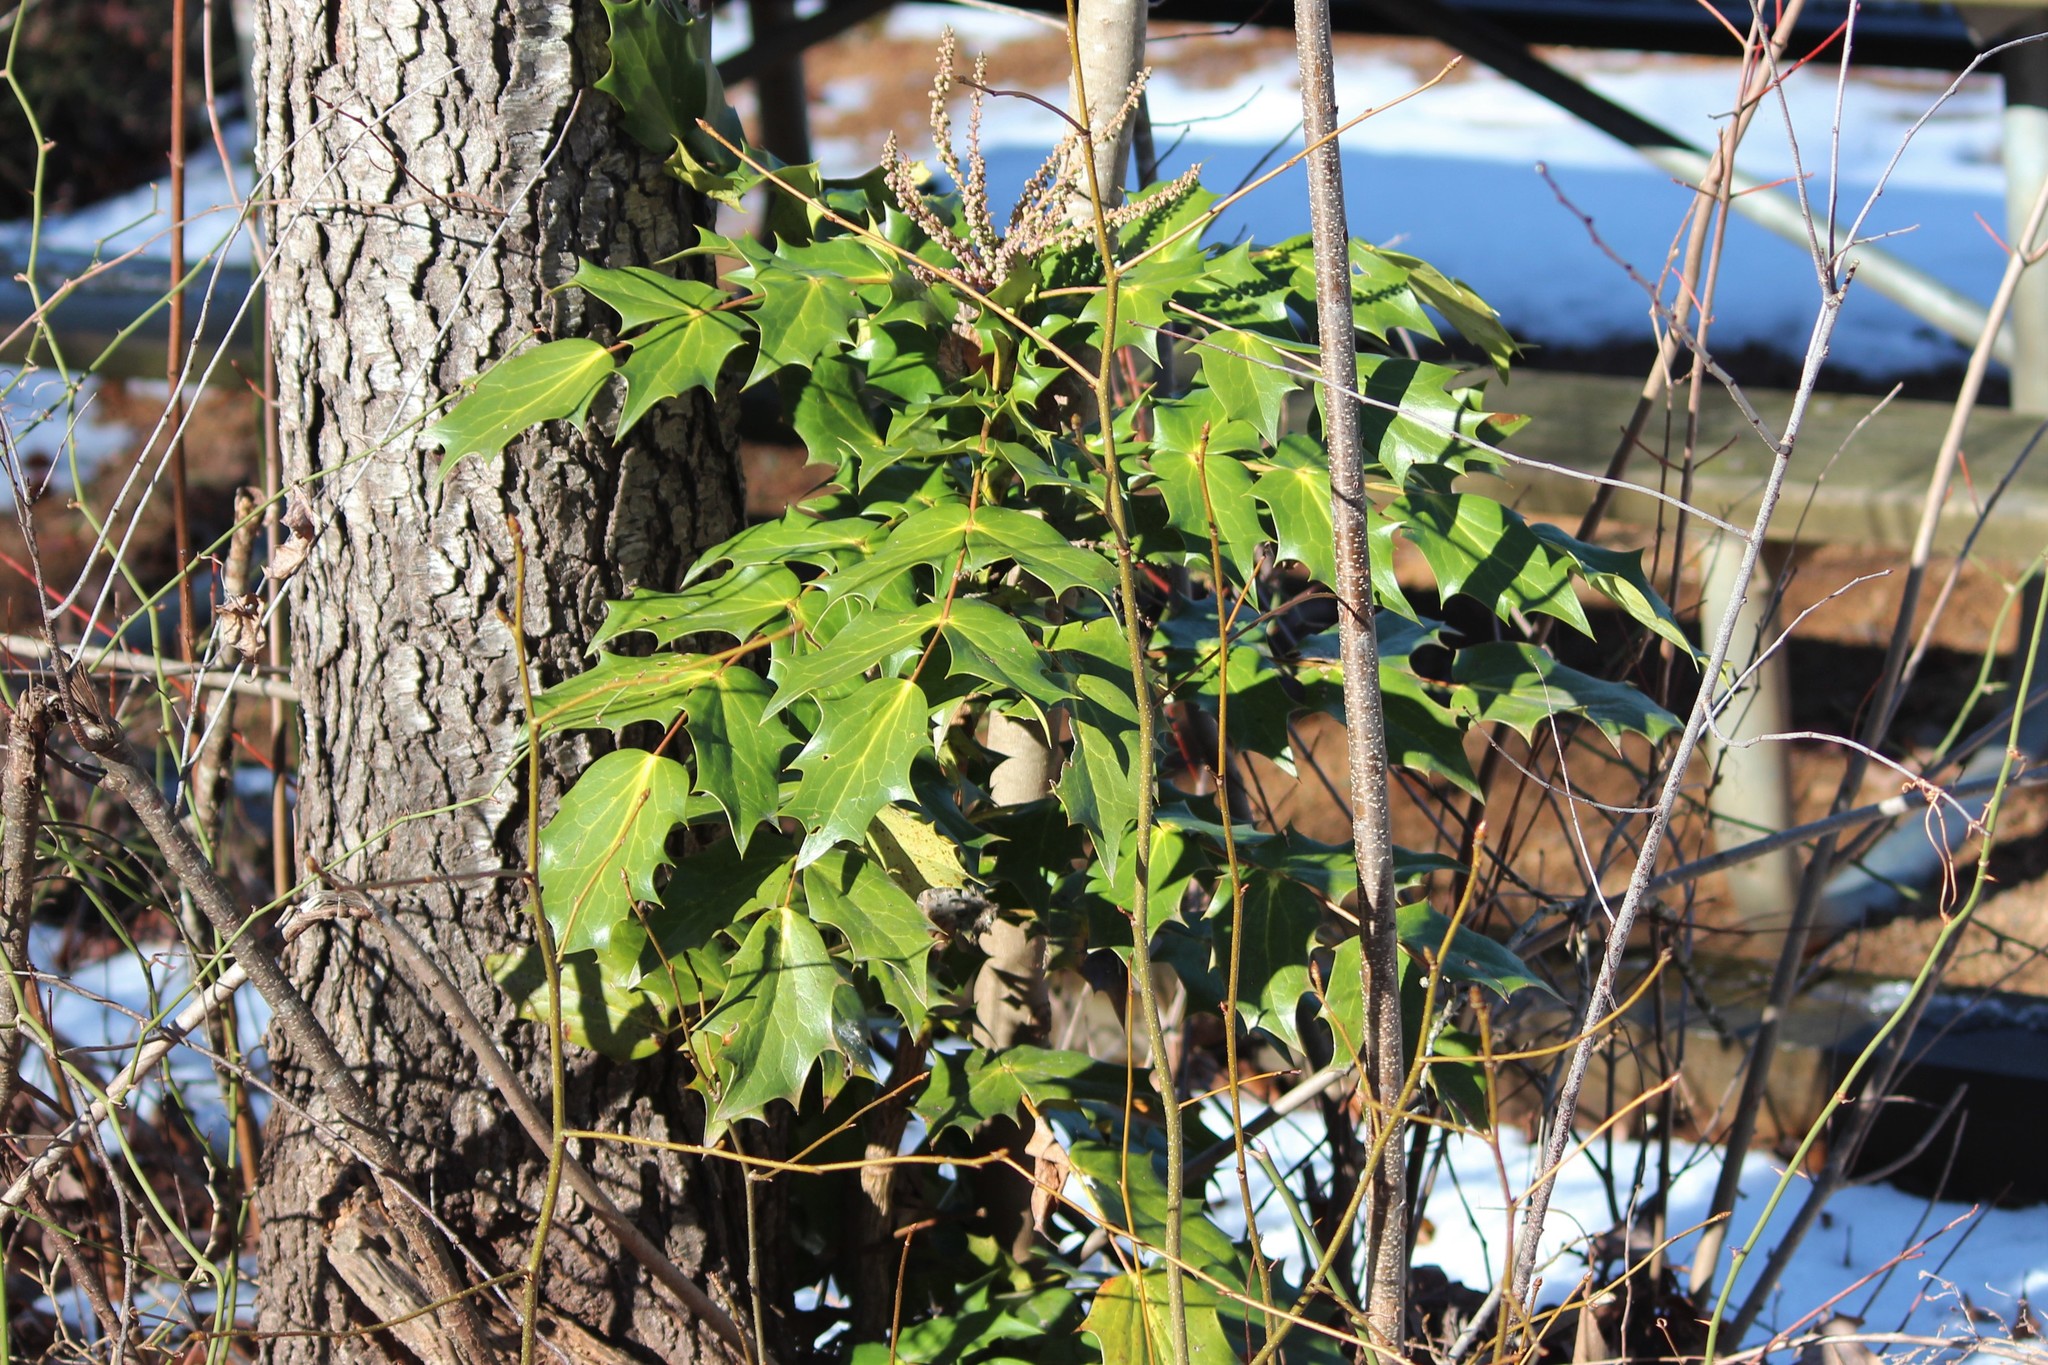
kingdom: Plantae
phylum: Tracheophyta
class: Magnoliopsida
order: Ranunculales
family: Berberidaceae
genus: Mahonia
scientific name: Mahonia bealei
